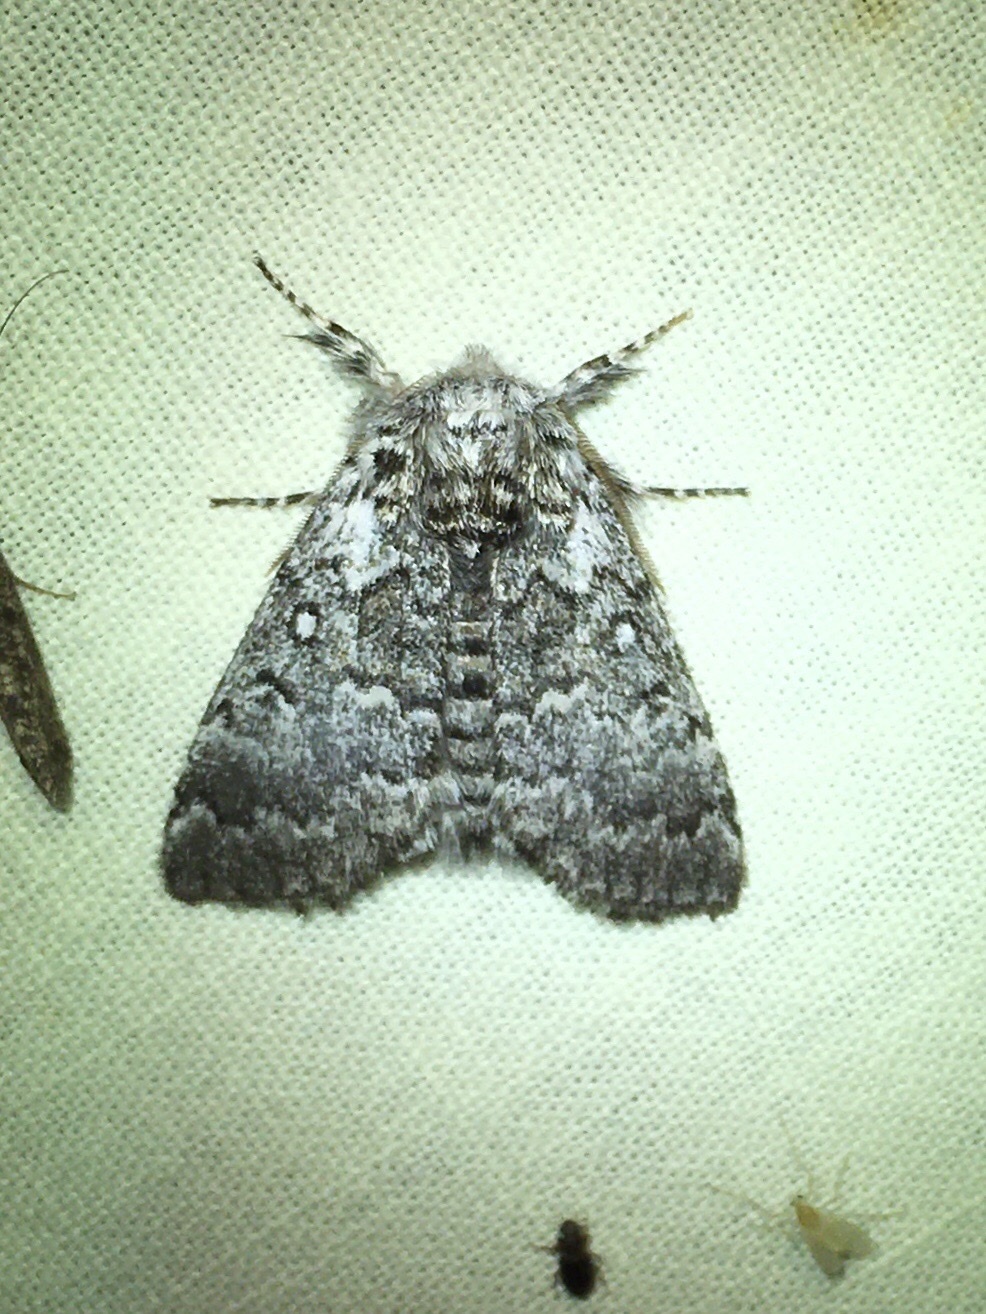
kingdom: Animalia
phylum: Arthropoda
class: Insecta
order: Lepidoptera
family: Noctuidae
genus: Colocasia
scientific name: Colocasia propinquilinea
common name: Close-banded demas
